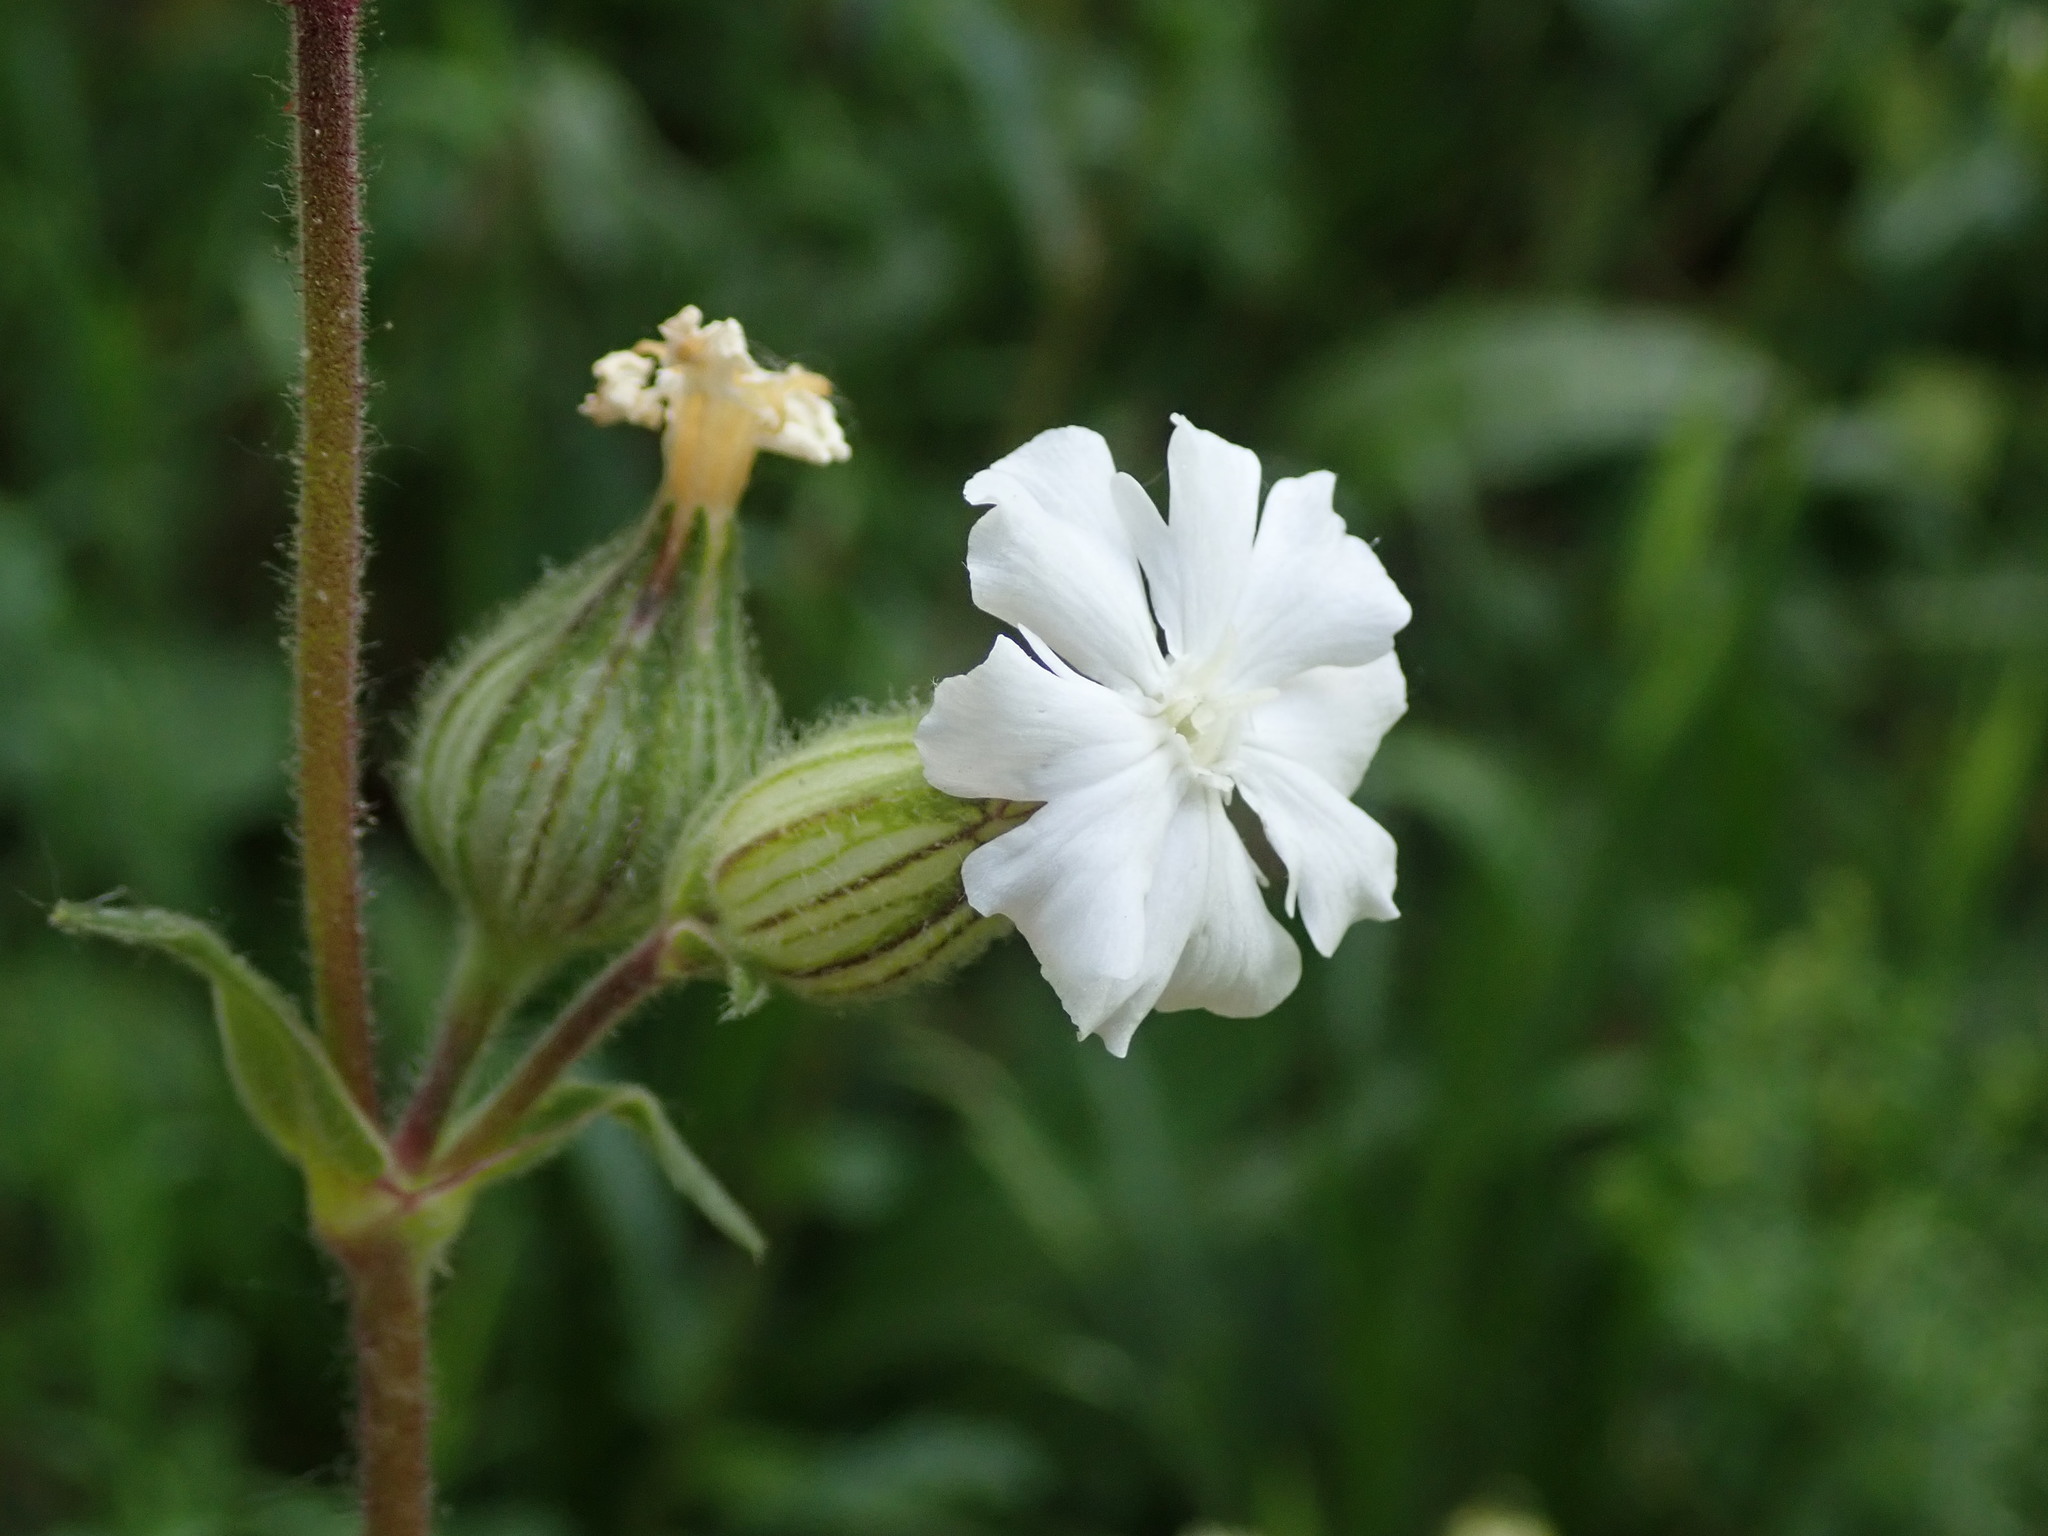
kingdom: Plantae
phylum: Tracheophyta
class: Magnoliopsida
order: Caryophyllales
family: Caryophyllaceae
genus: Silene
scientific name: Silene latifolia
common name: White campion
